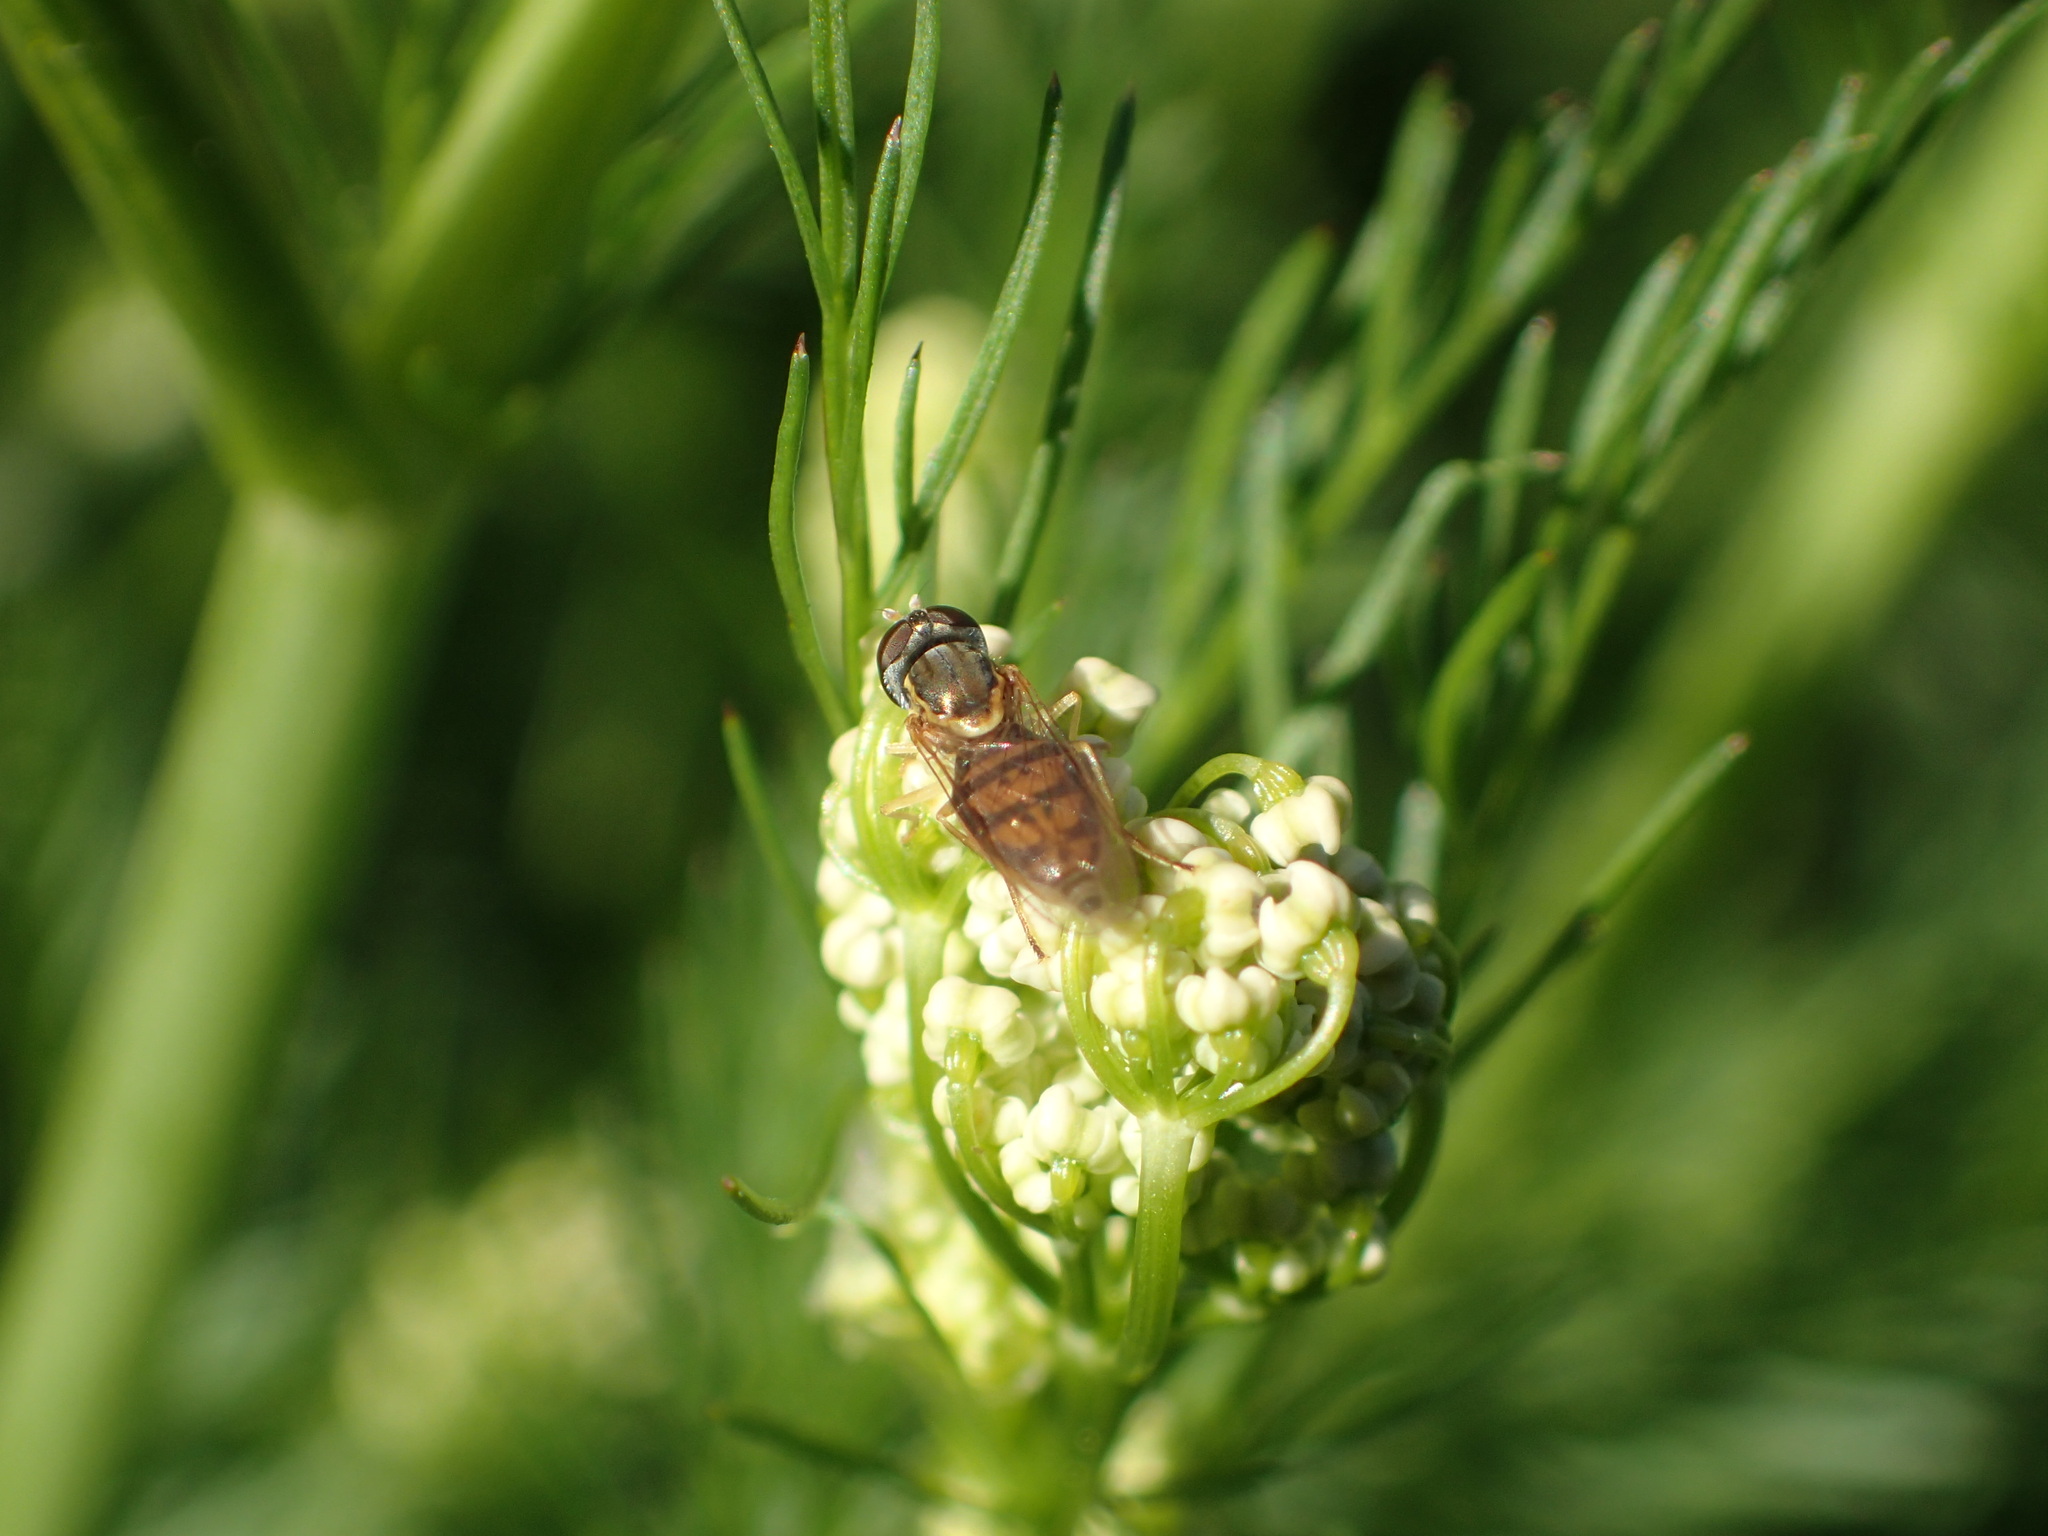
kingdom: Animalia
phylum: Arthropoda
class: Insecta
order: Diptera
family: Syrphidae
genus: Toxomerus
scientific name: Toxomerus marginatus
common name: Syrphid fly
